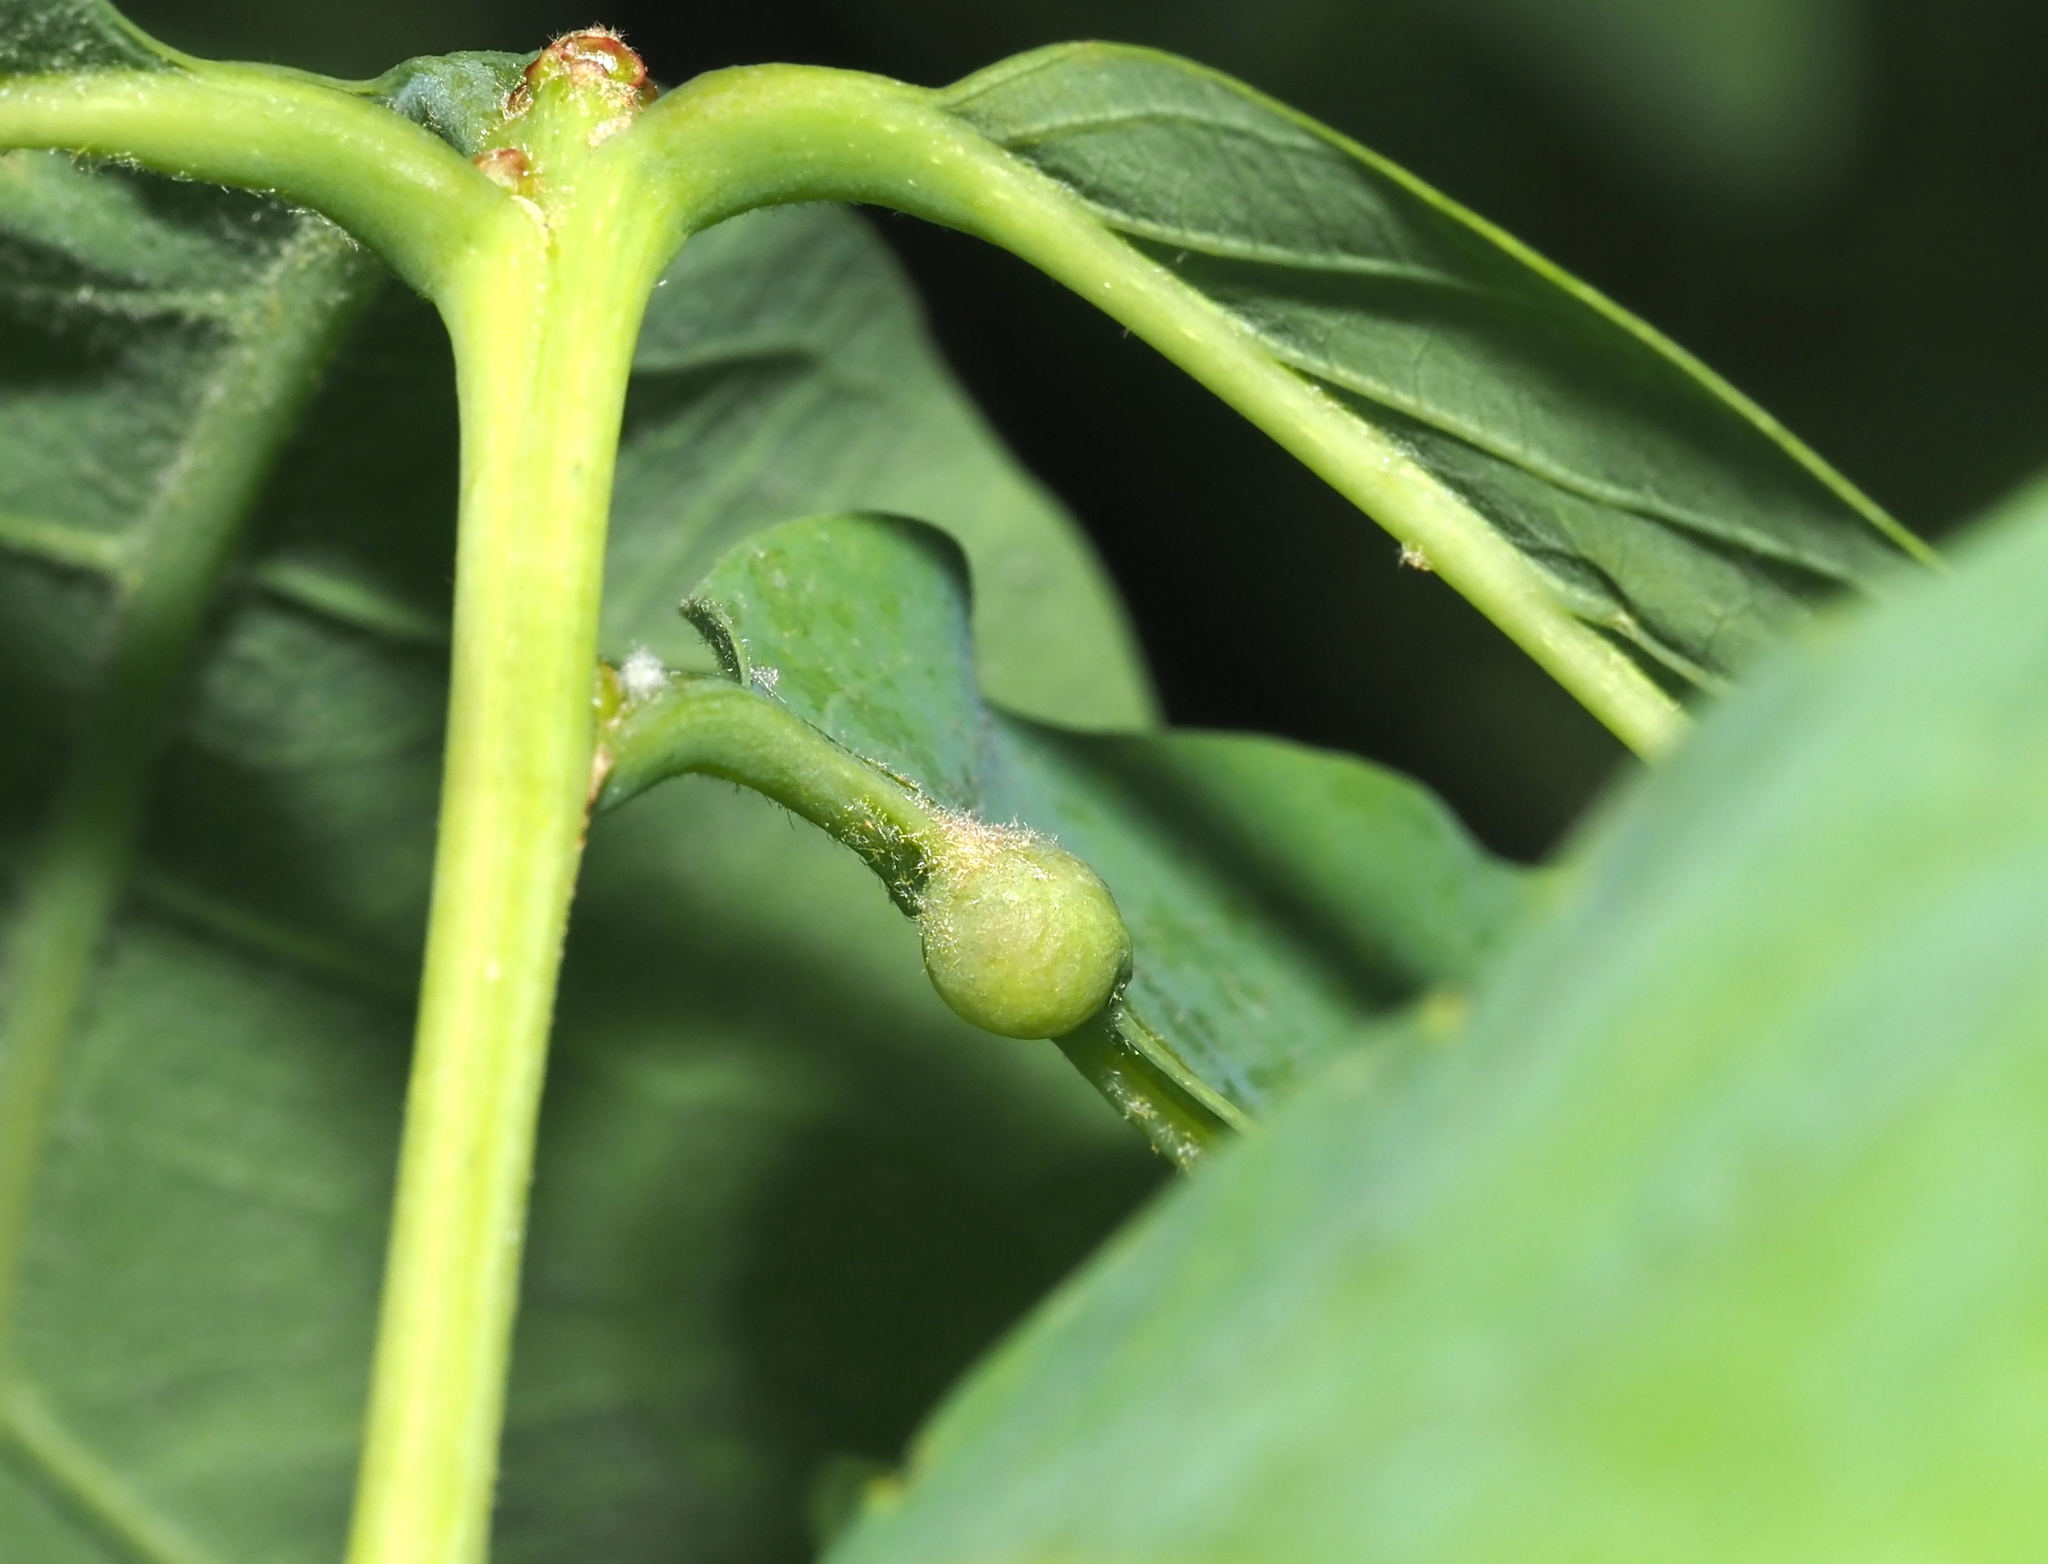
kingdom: Animalia
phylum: Arthropoda
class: Insecta
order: Hymenoptera
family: Cynipidae
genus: Andricus
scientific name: Andricus
